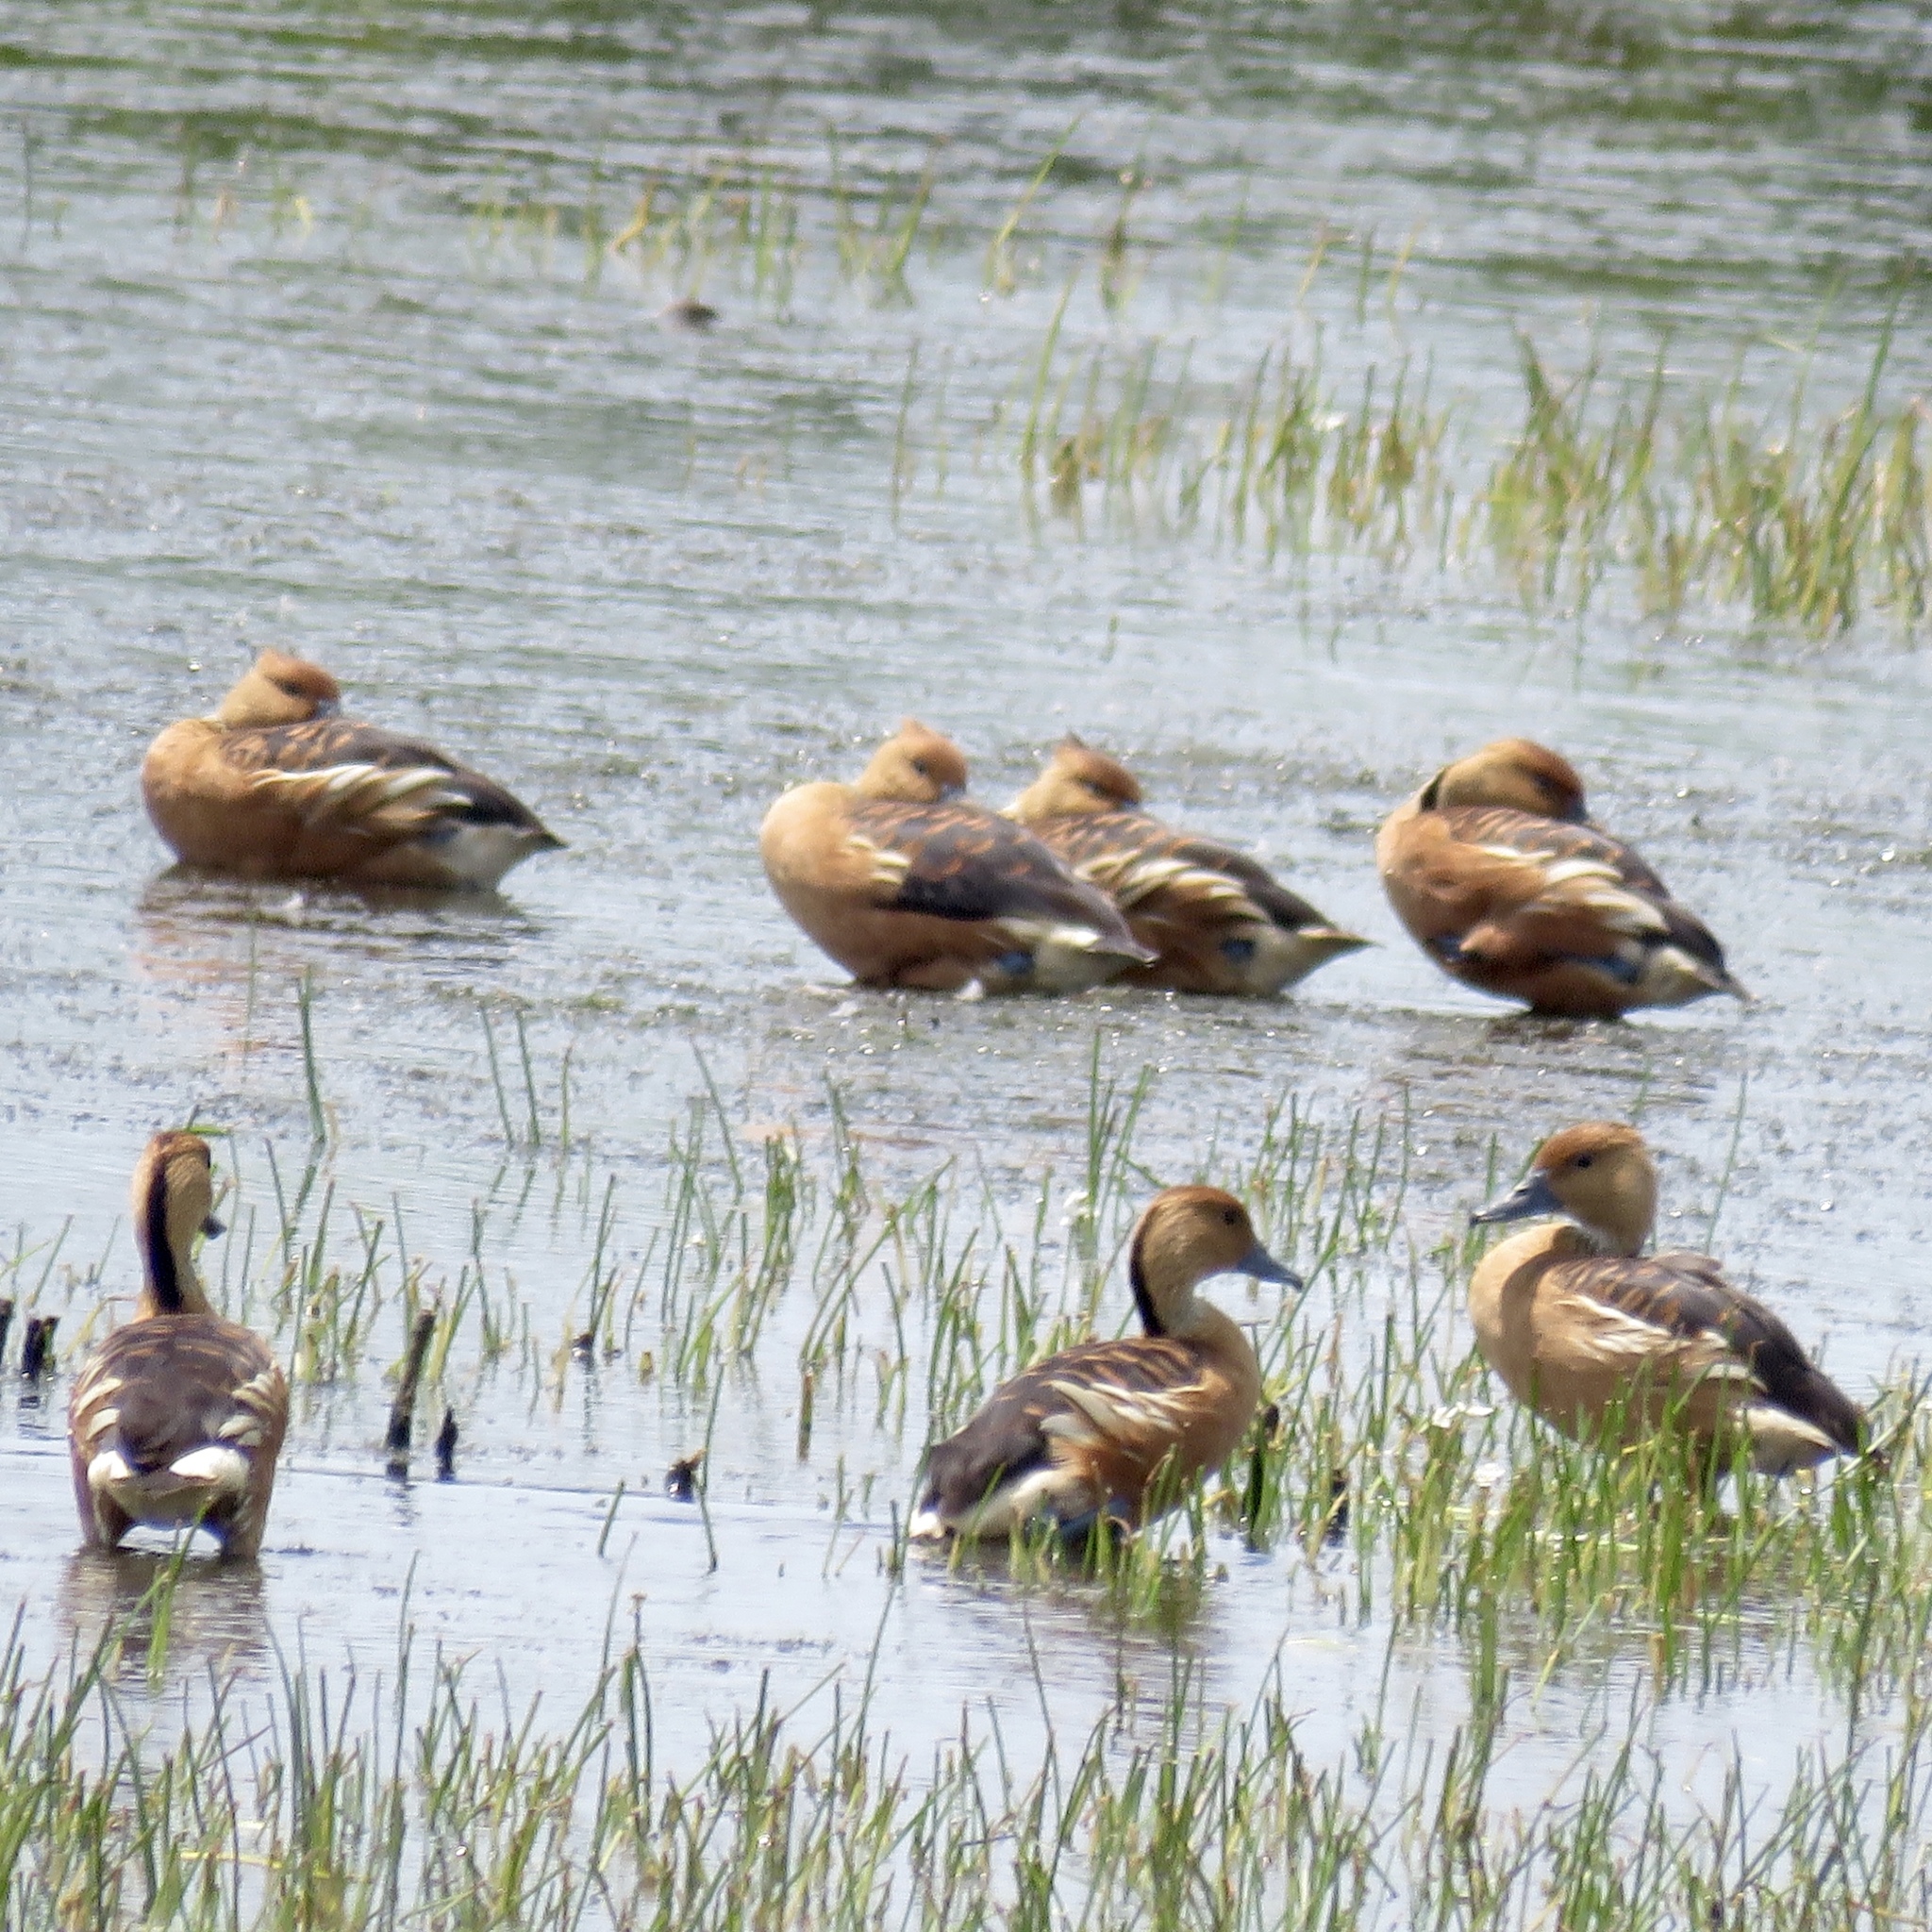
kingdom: Animalia
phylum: Chordata
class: Aves
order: Anseriformes
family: Anatidae
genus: Dendrocygna
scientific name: Dendrocygna bicolor
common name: Fulvous whistling duck
